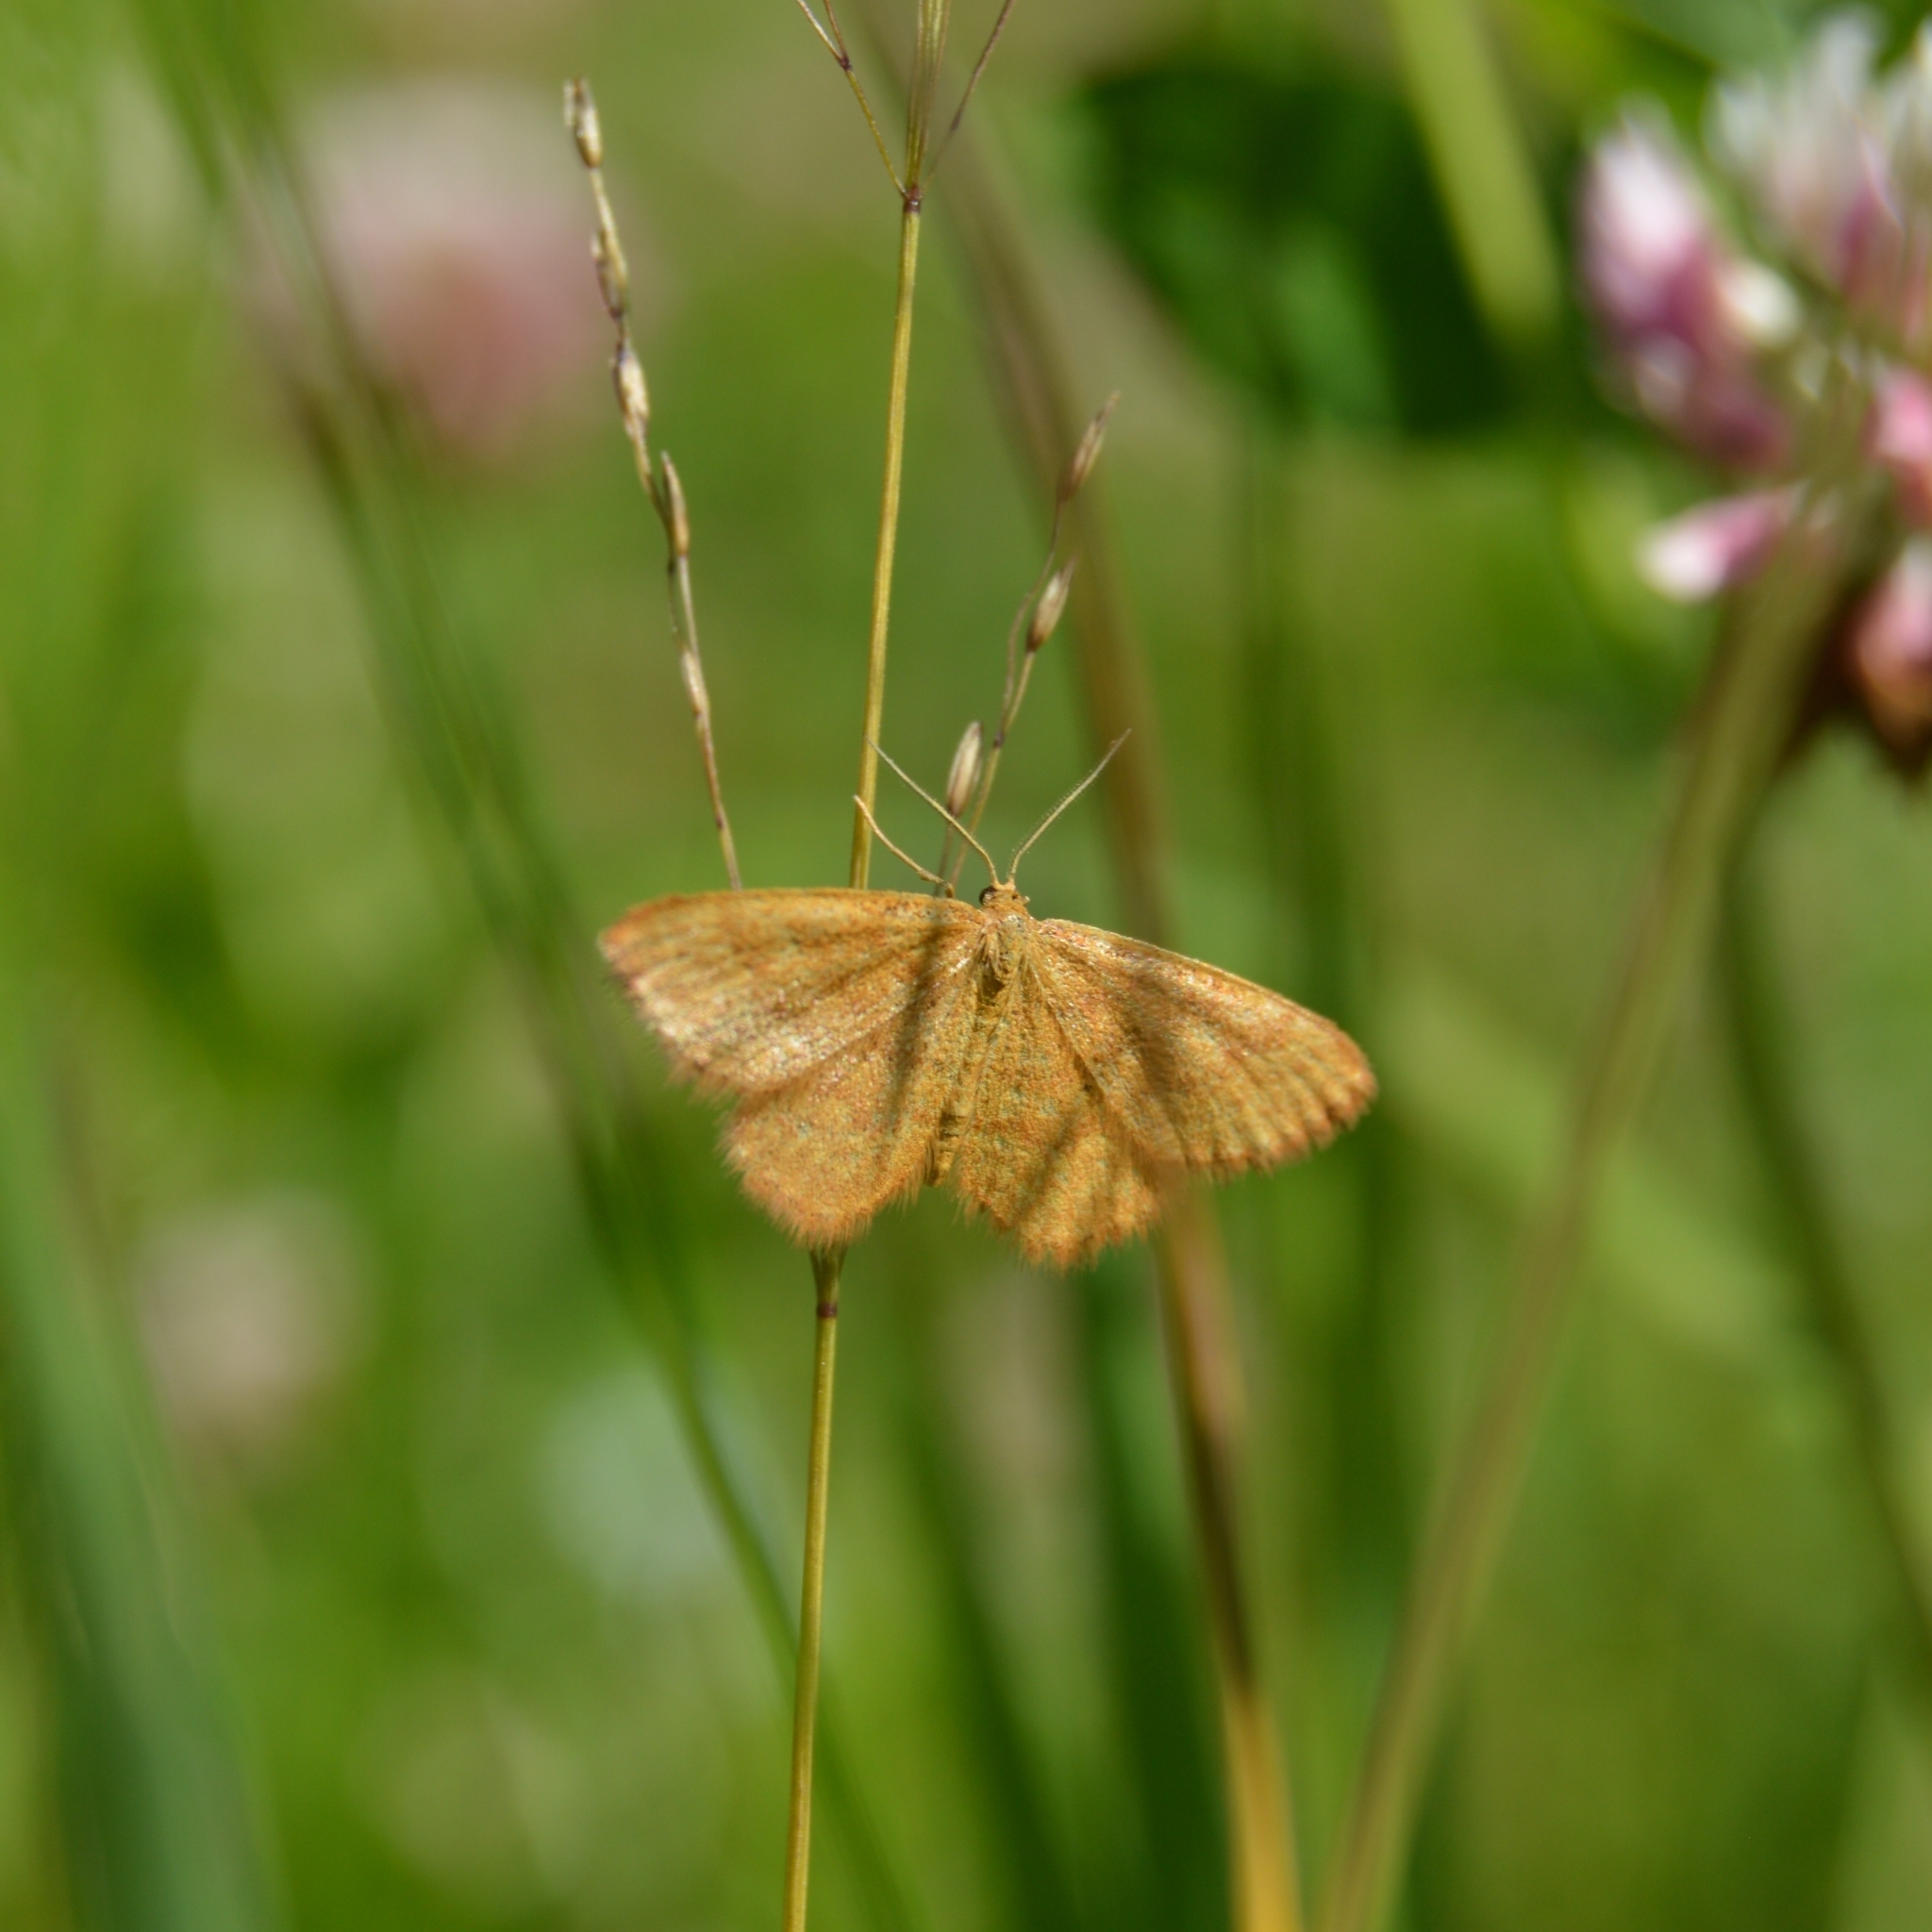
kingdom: Animalia
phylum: Arthropoda
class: Insecta
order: Lepidoptera
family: Geometridae
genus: Idaea
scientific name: Idaea serpentata
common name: Ochraceous wave
